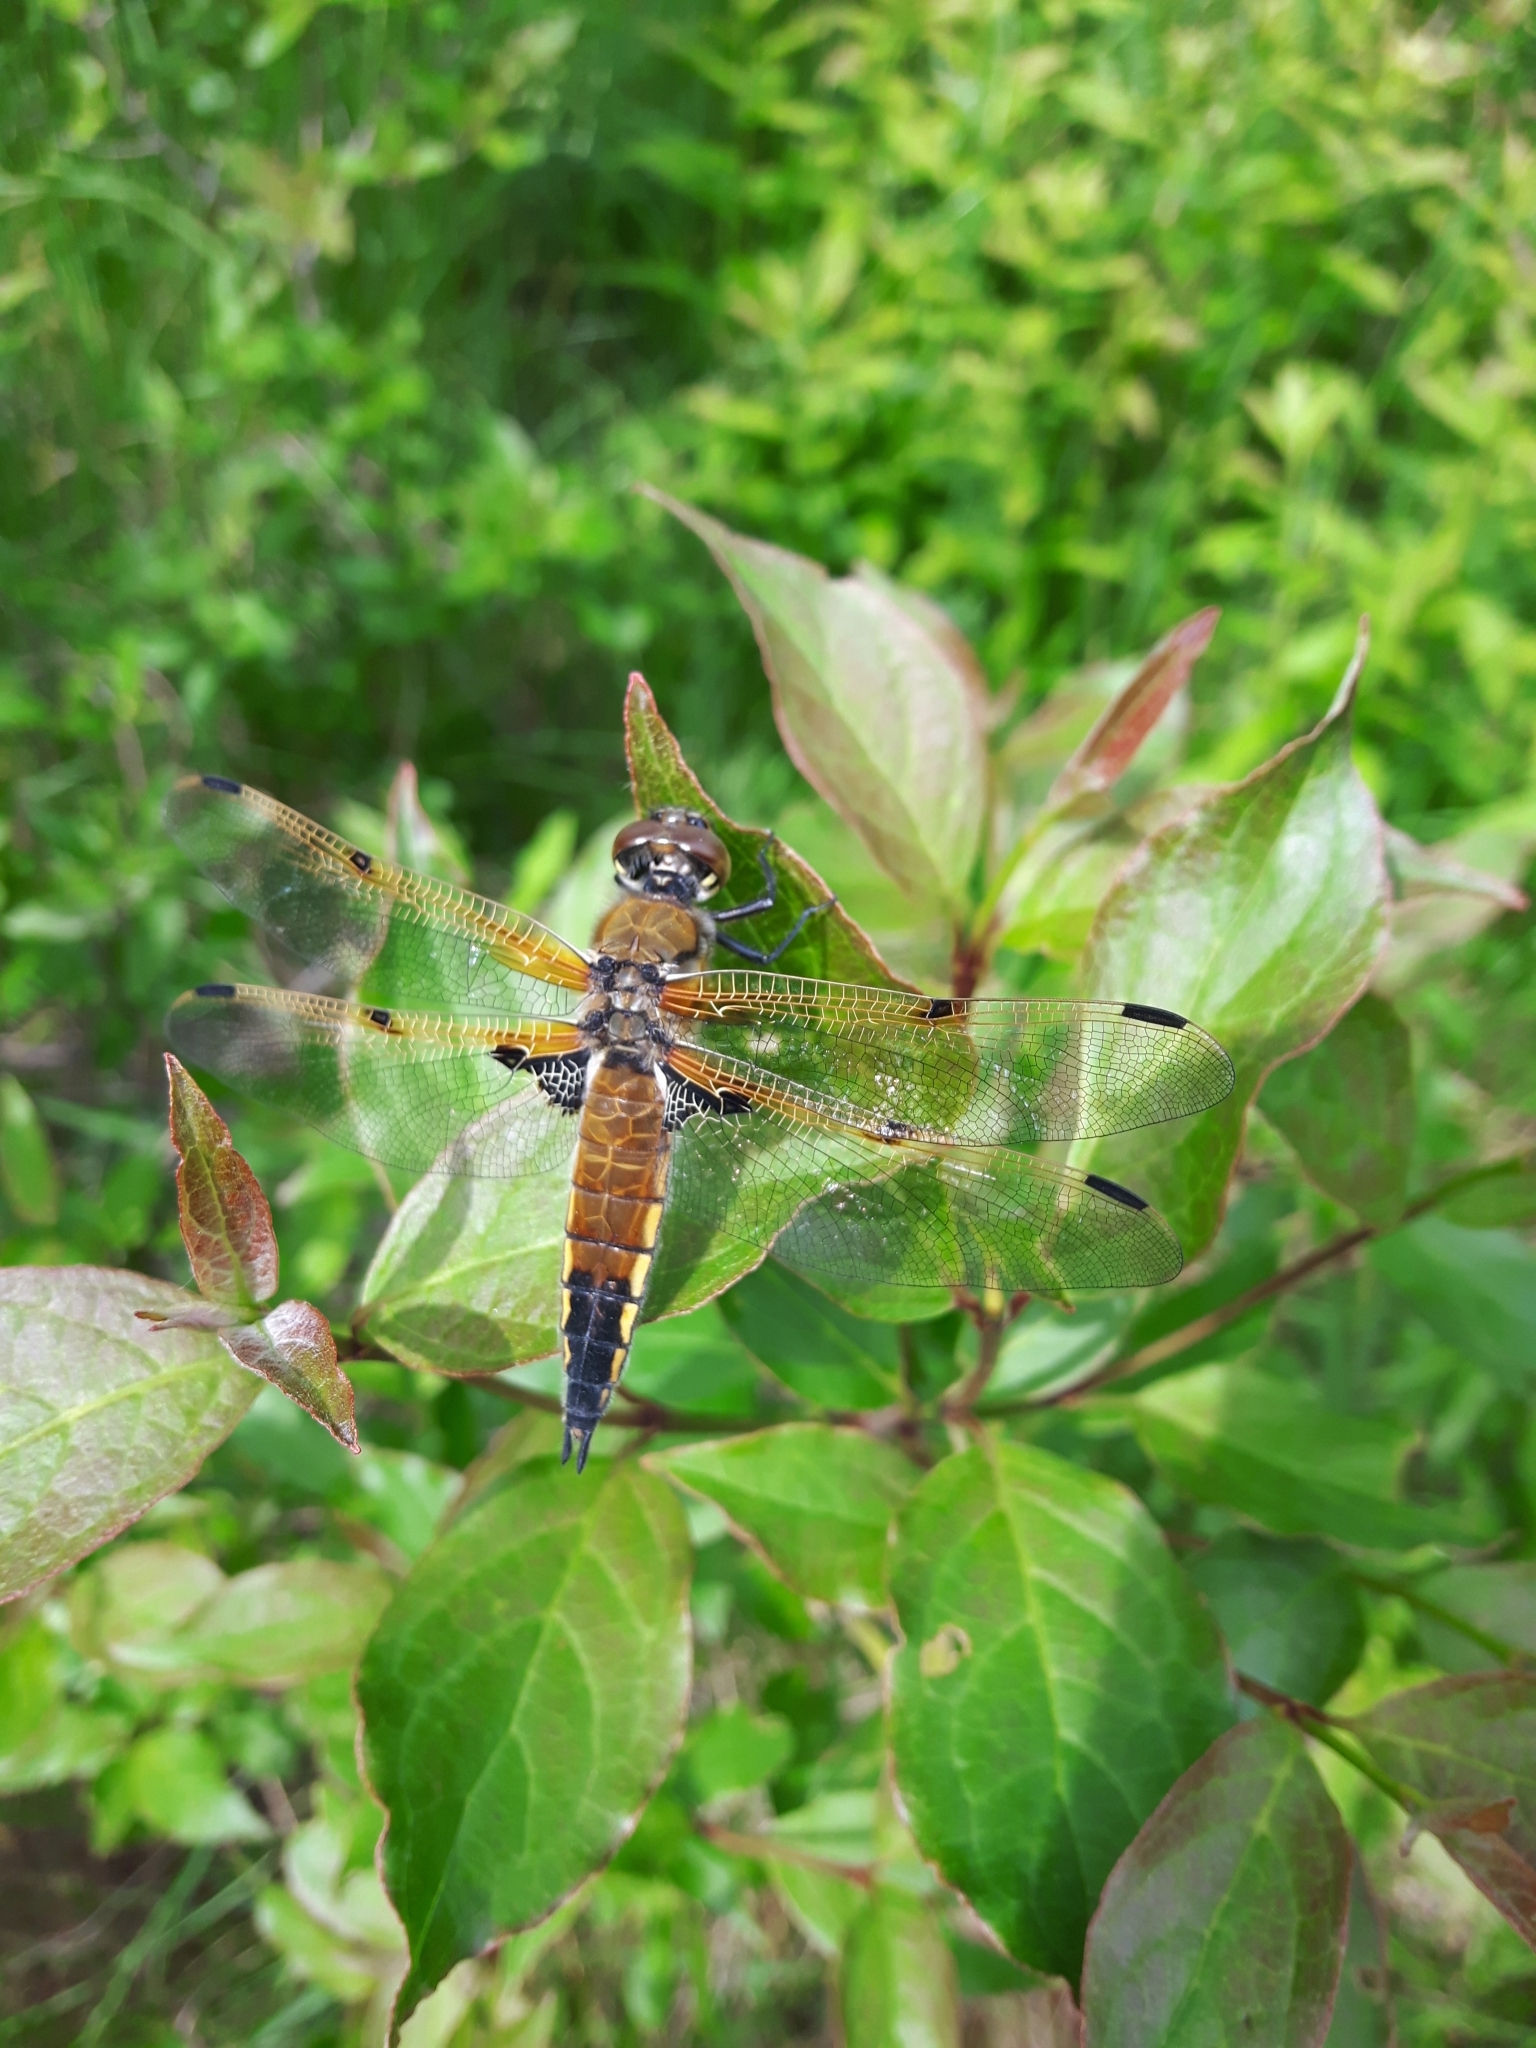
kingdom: Animalia
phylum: Arthropoda
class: Insecta
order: Odonata
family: Libellulidae
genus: Libellula
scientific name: Libellula quadrimaculata
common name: Four-spotted chaser
